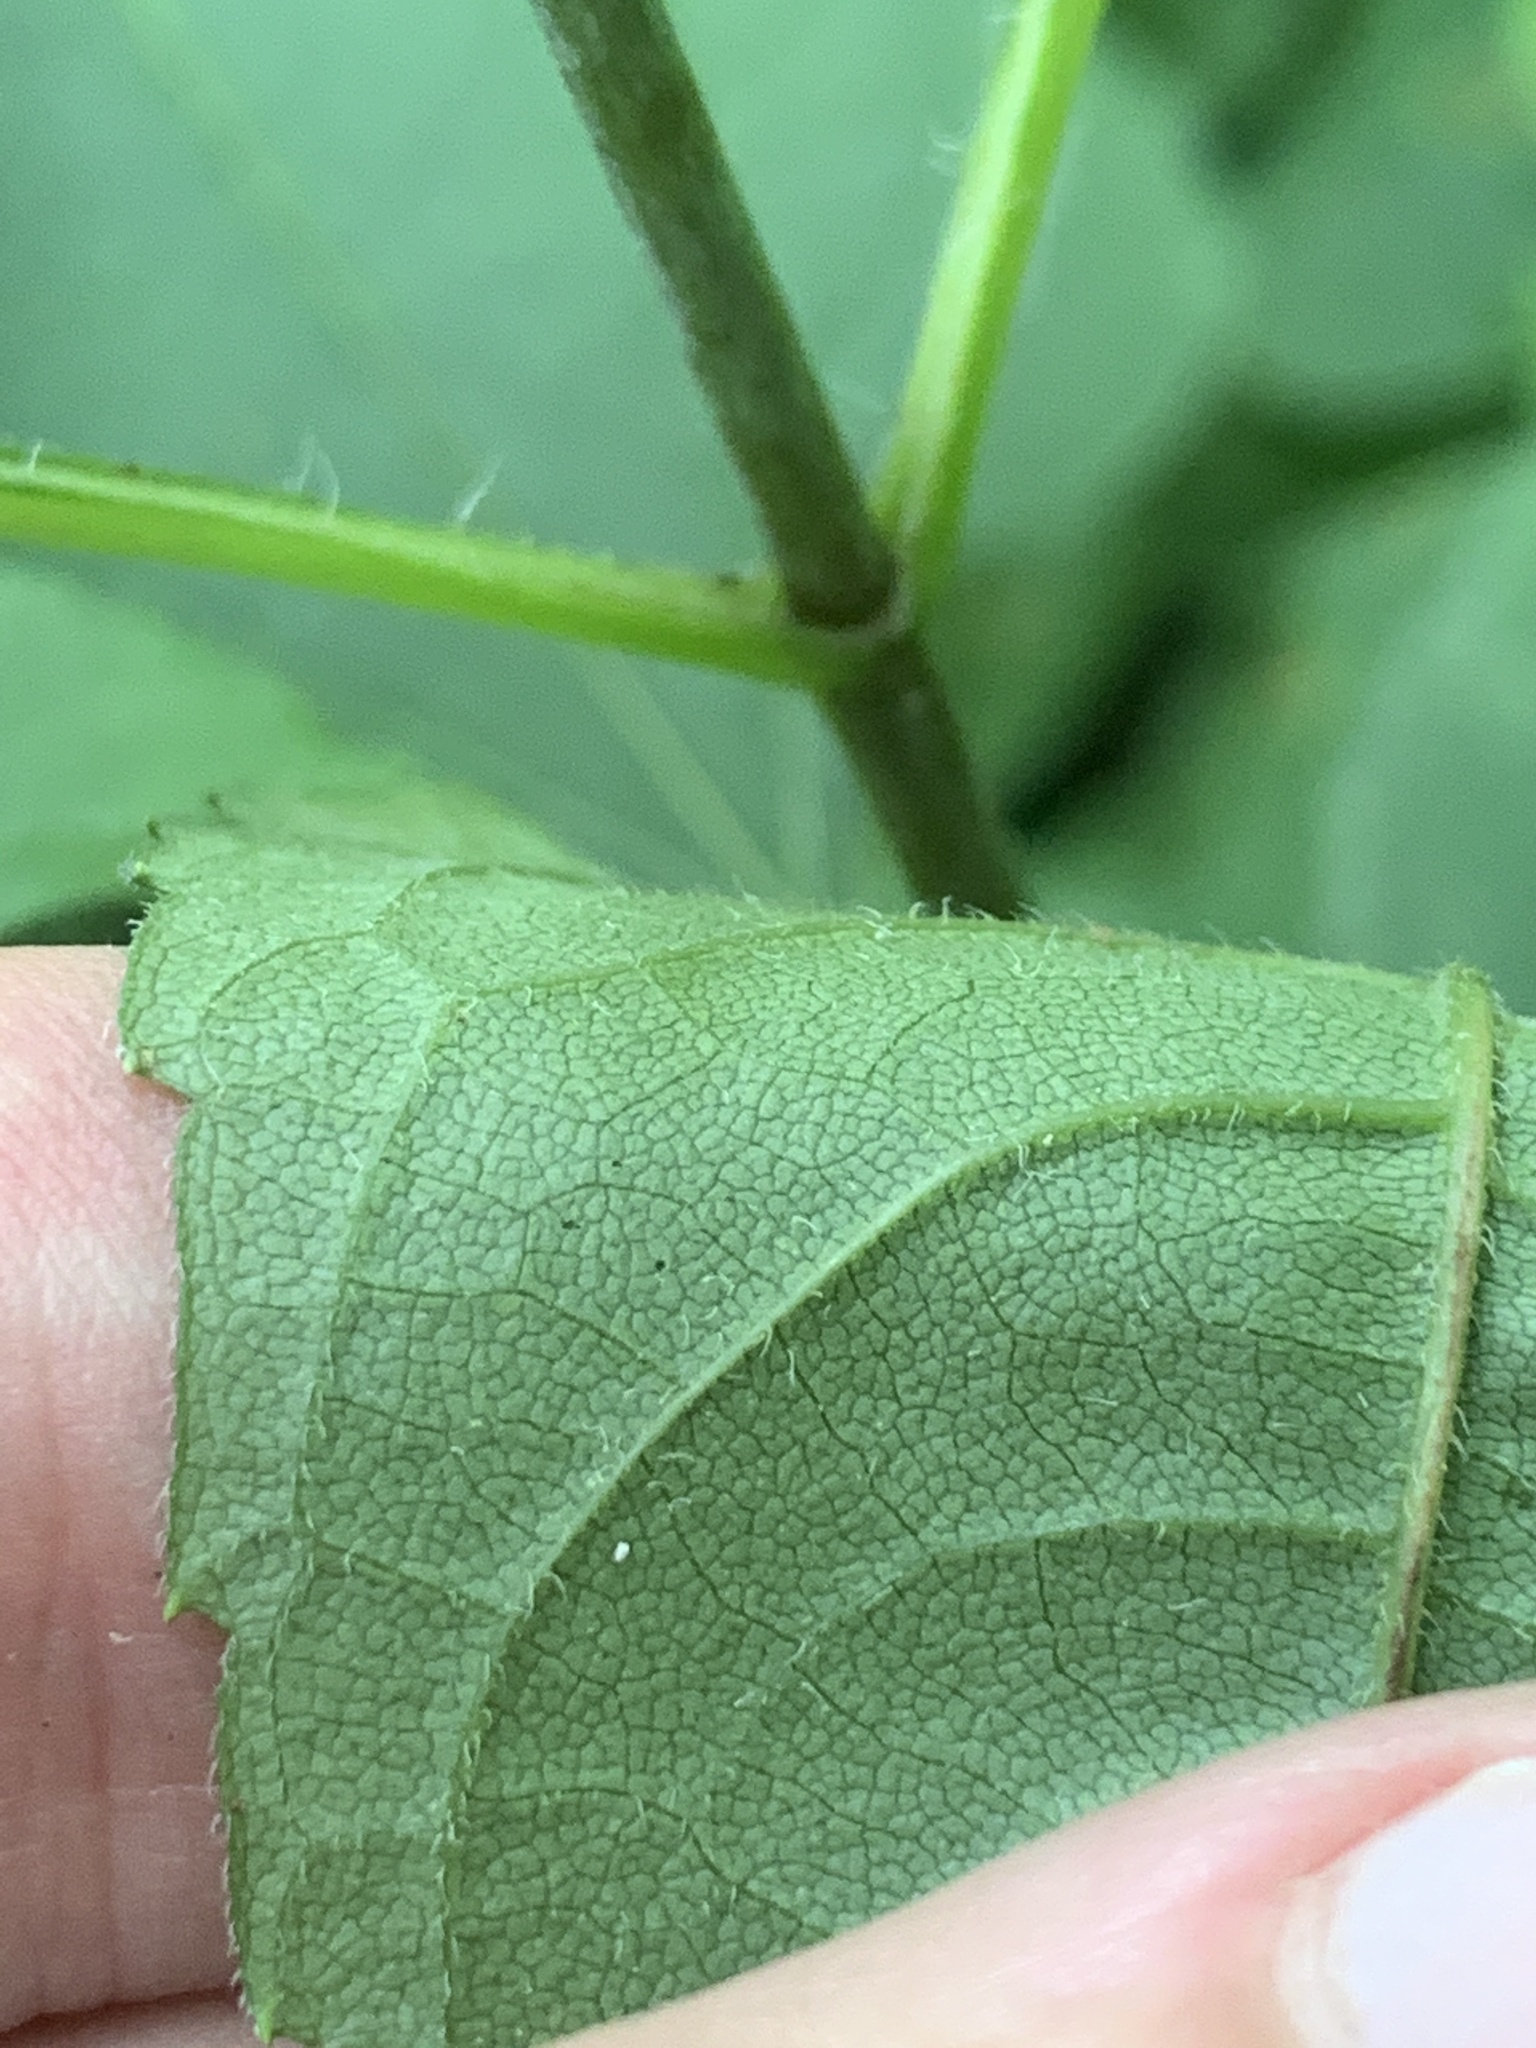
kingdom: Plantae
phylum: Tracheophyta
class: Magnoliopsida
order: Asterales
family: Asteraceae
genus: Helianthus
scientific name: Helianthus strumosus
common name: Pale-leaved sunflower
